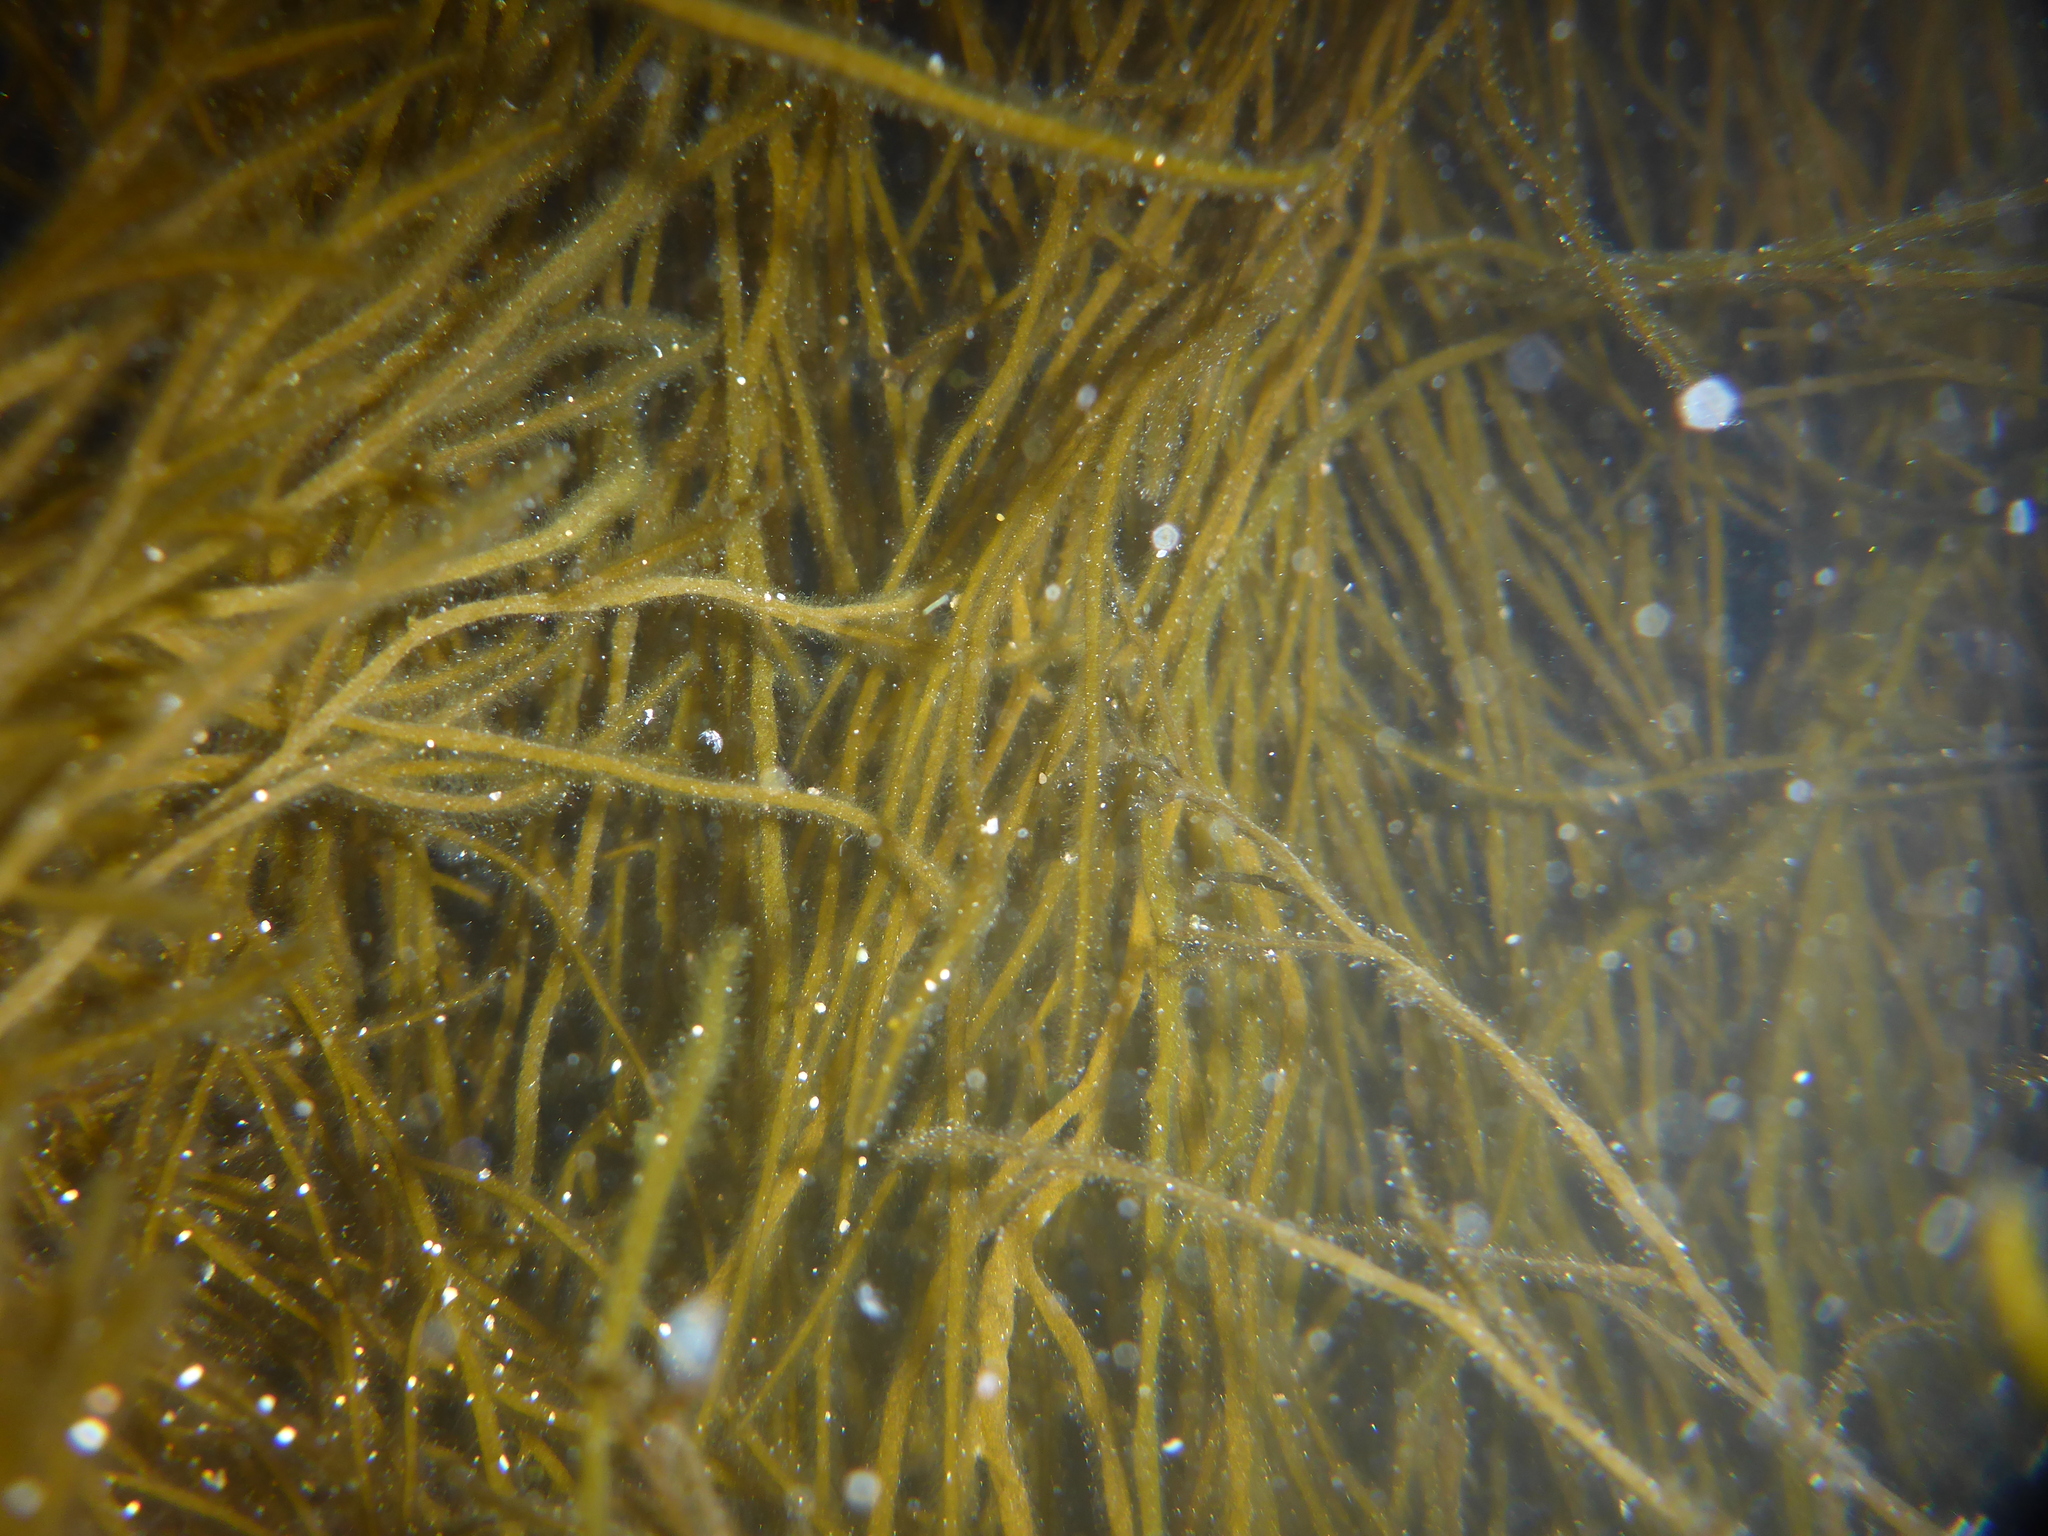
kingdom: Chromista
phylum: Ochrophyta
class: Phaeophyceae
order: Ectocarpales
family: Chordariaceae
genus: Haplogloia
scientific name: Haplogloia andersonii
